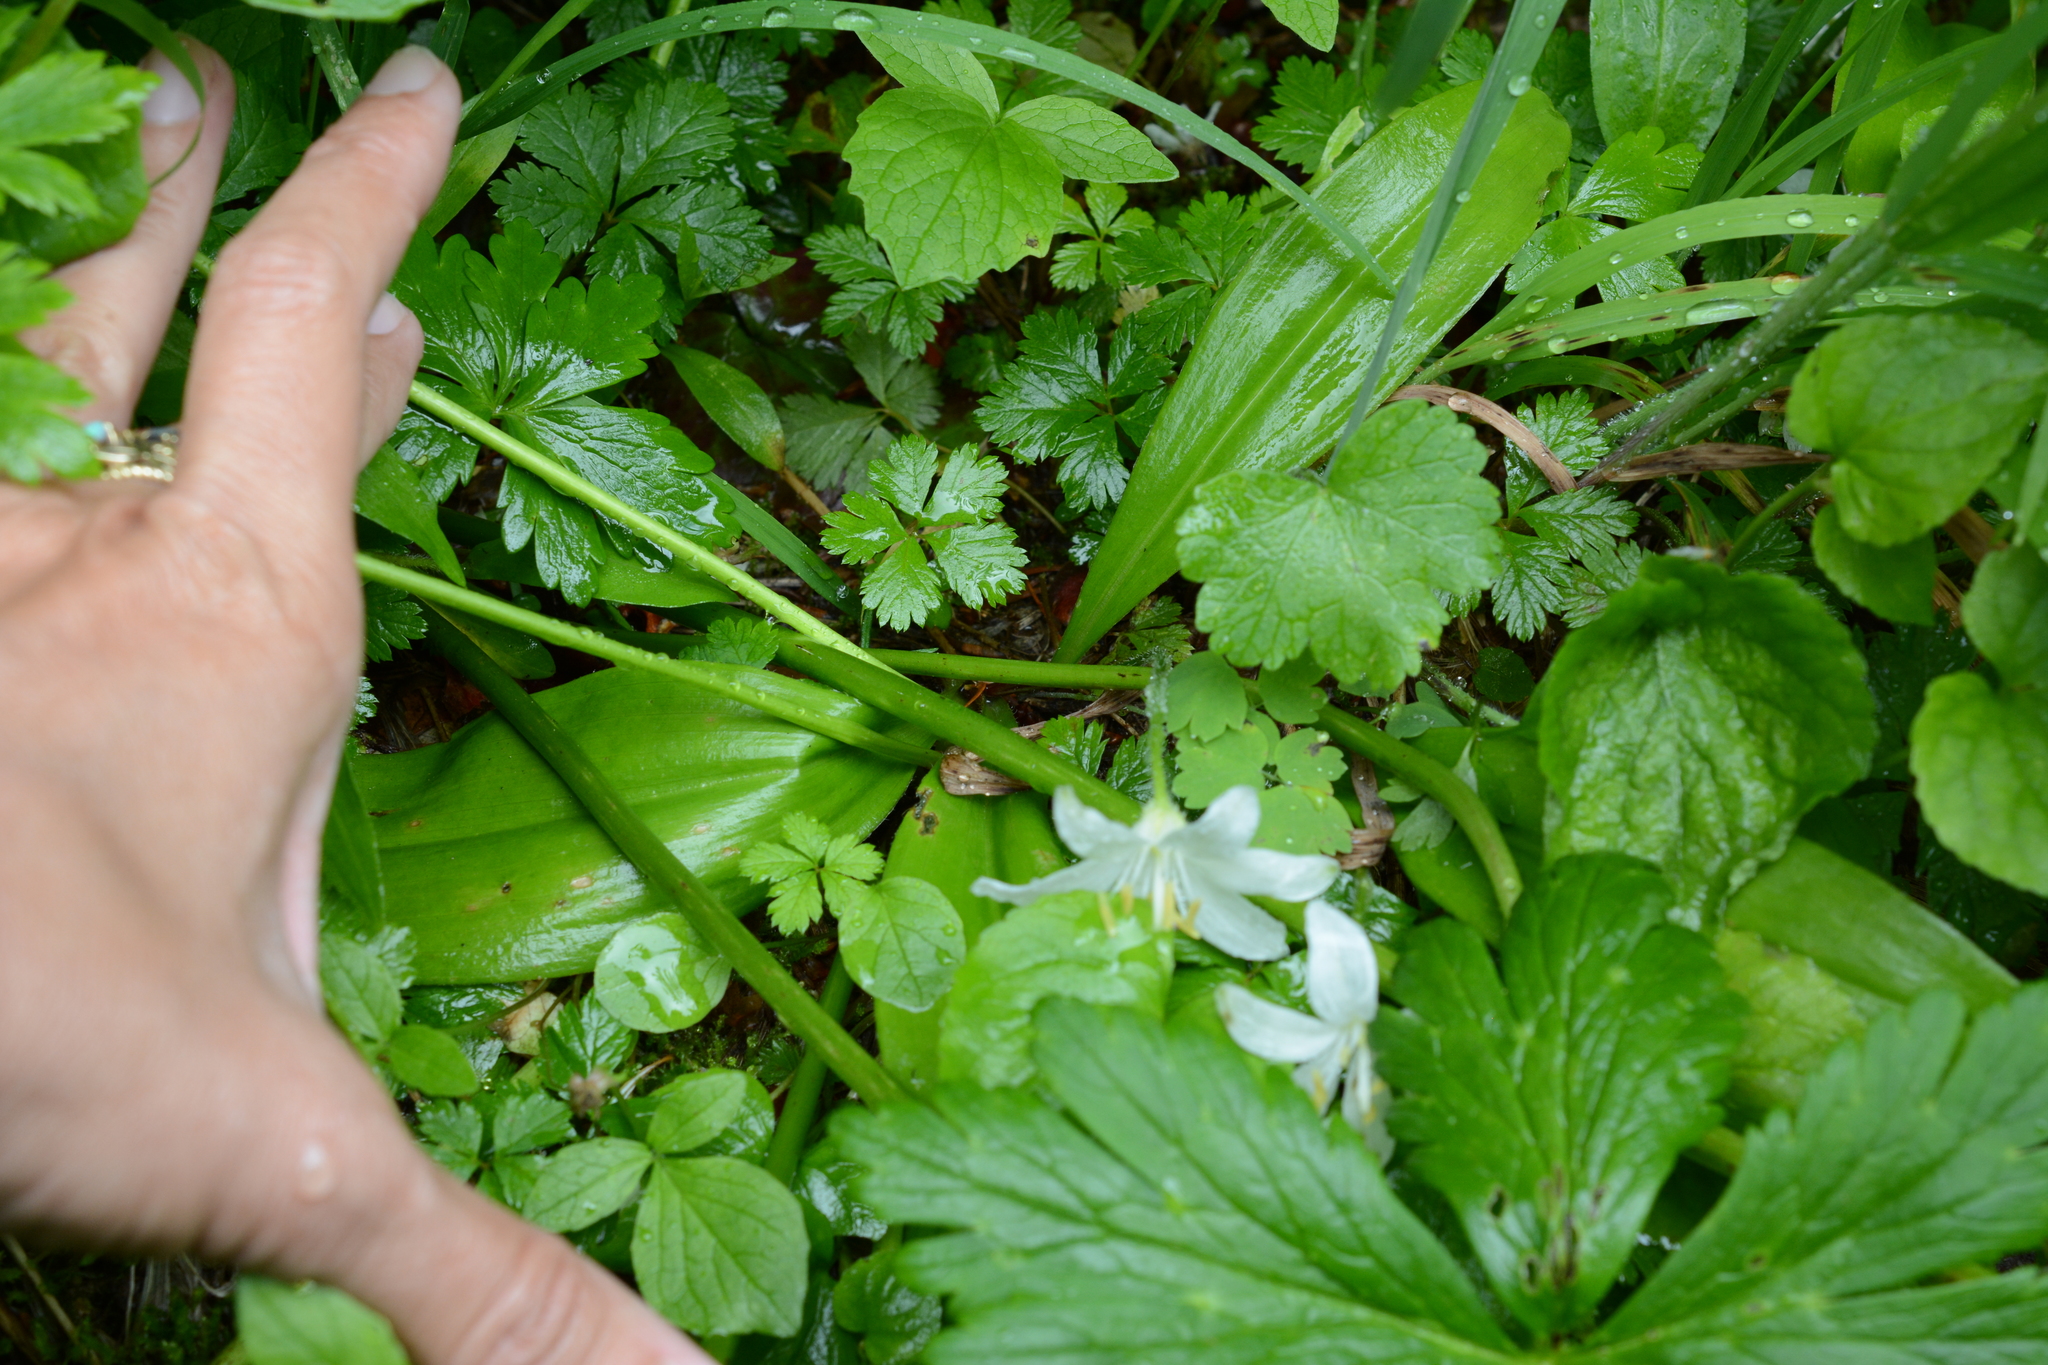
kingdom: Plantae
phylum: Tracheophyta
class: Liliopsida
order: Liliales
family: Liliaceae
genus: Clintonia
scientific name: Clintonia uniflora
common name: Queen's cup
